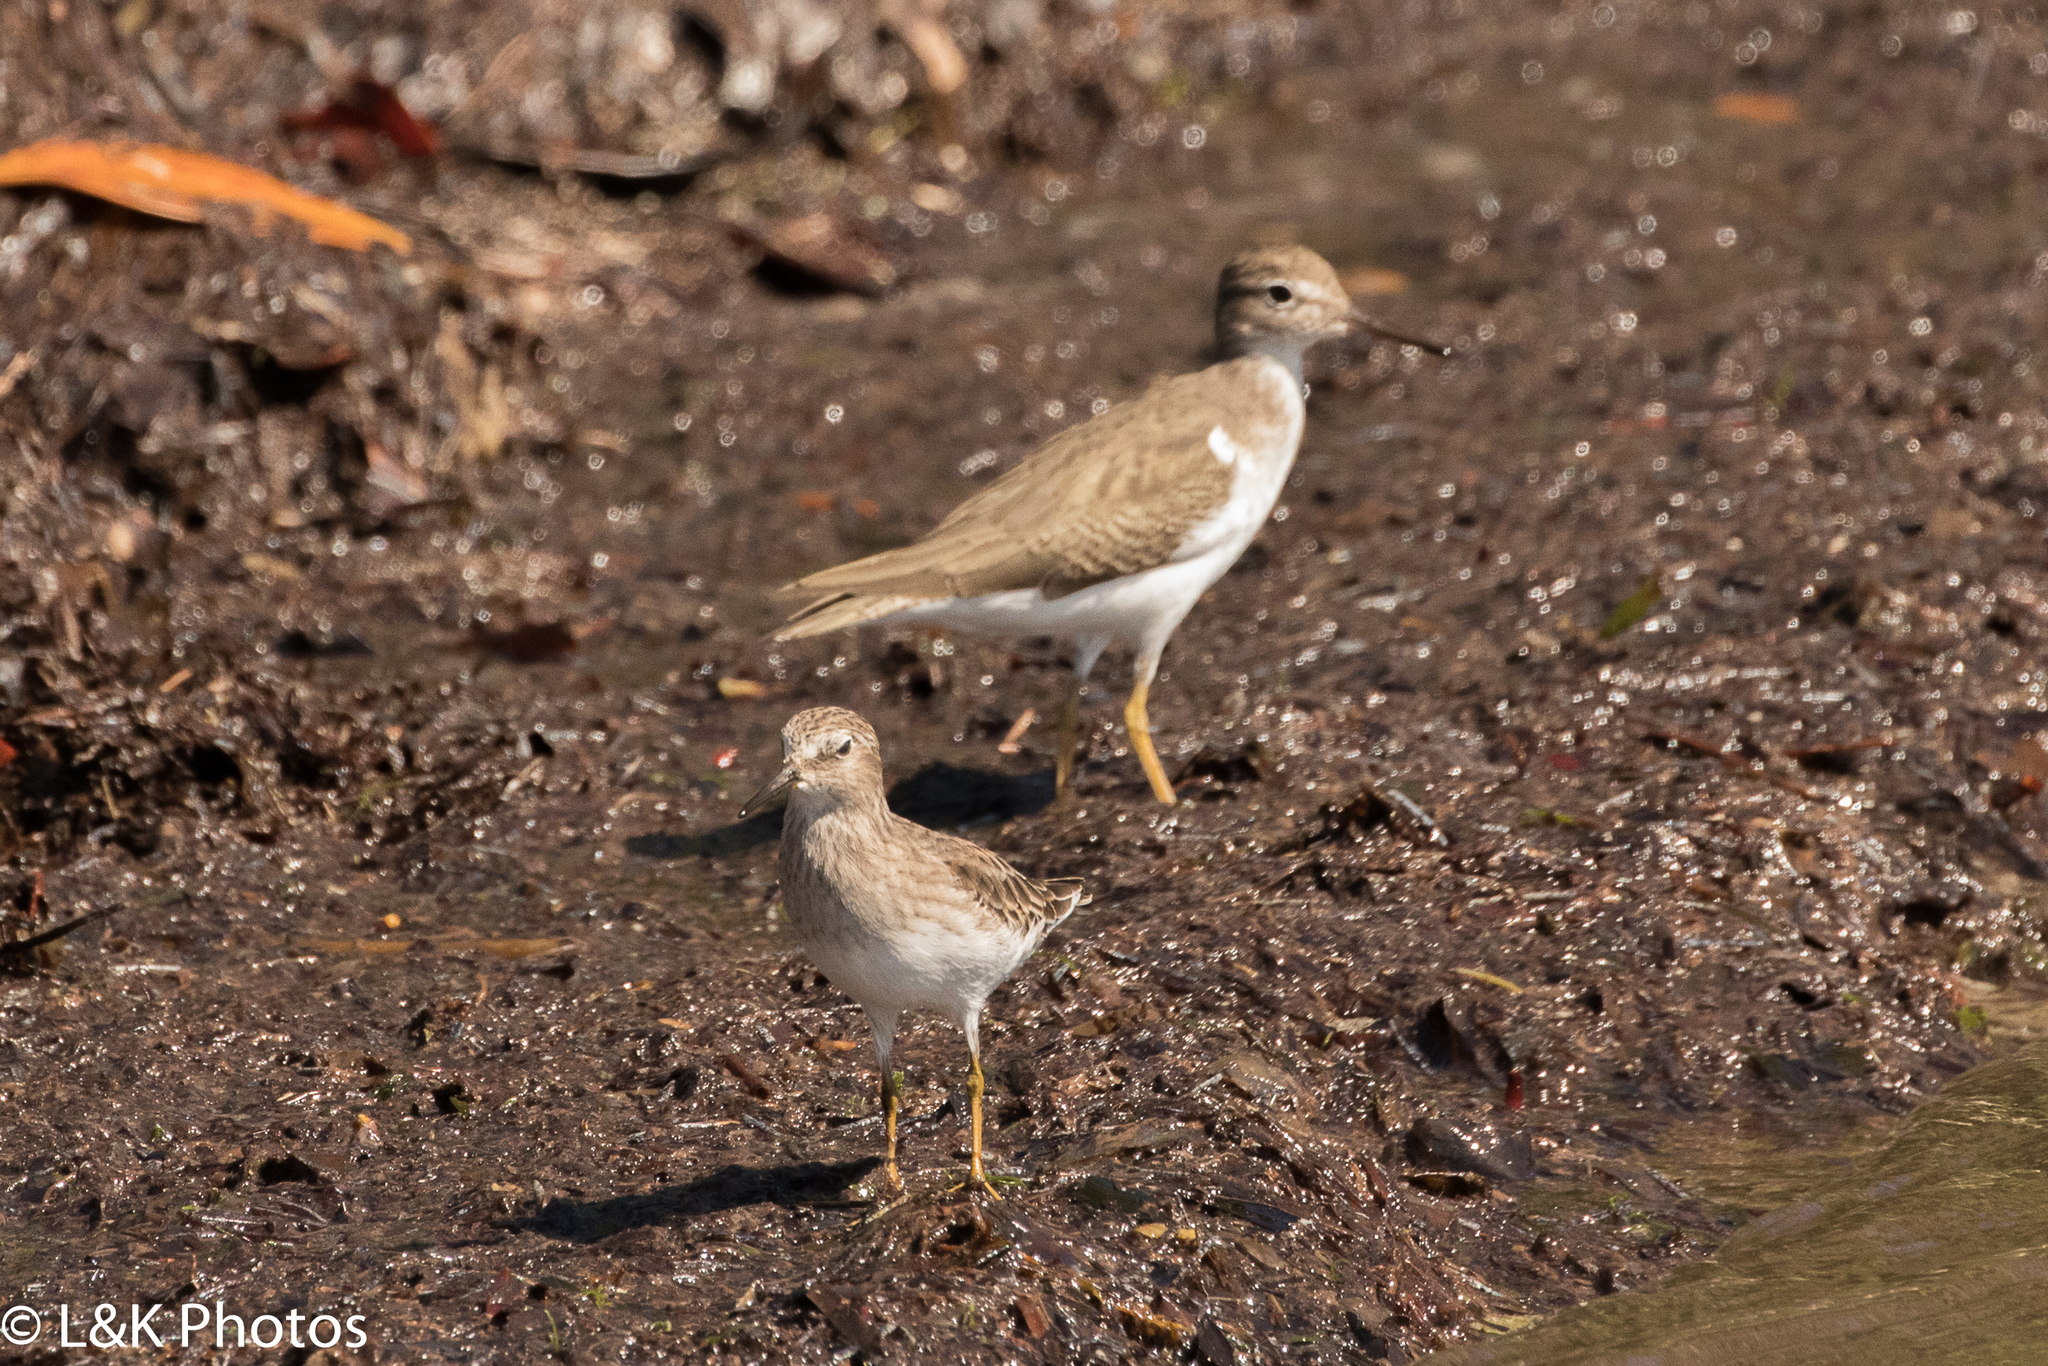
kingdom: Animalia
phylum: Chordata
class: Aves
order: Charadriiformes
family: Scolopacidae
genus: Actitis
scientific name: Actitis macularius
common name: Spotted sandpiper
